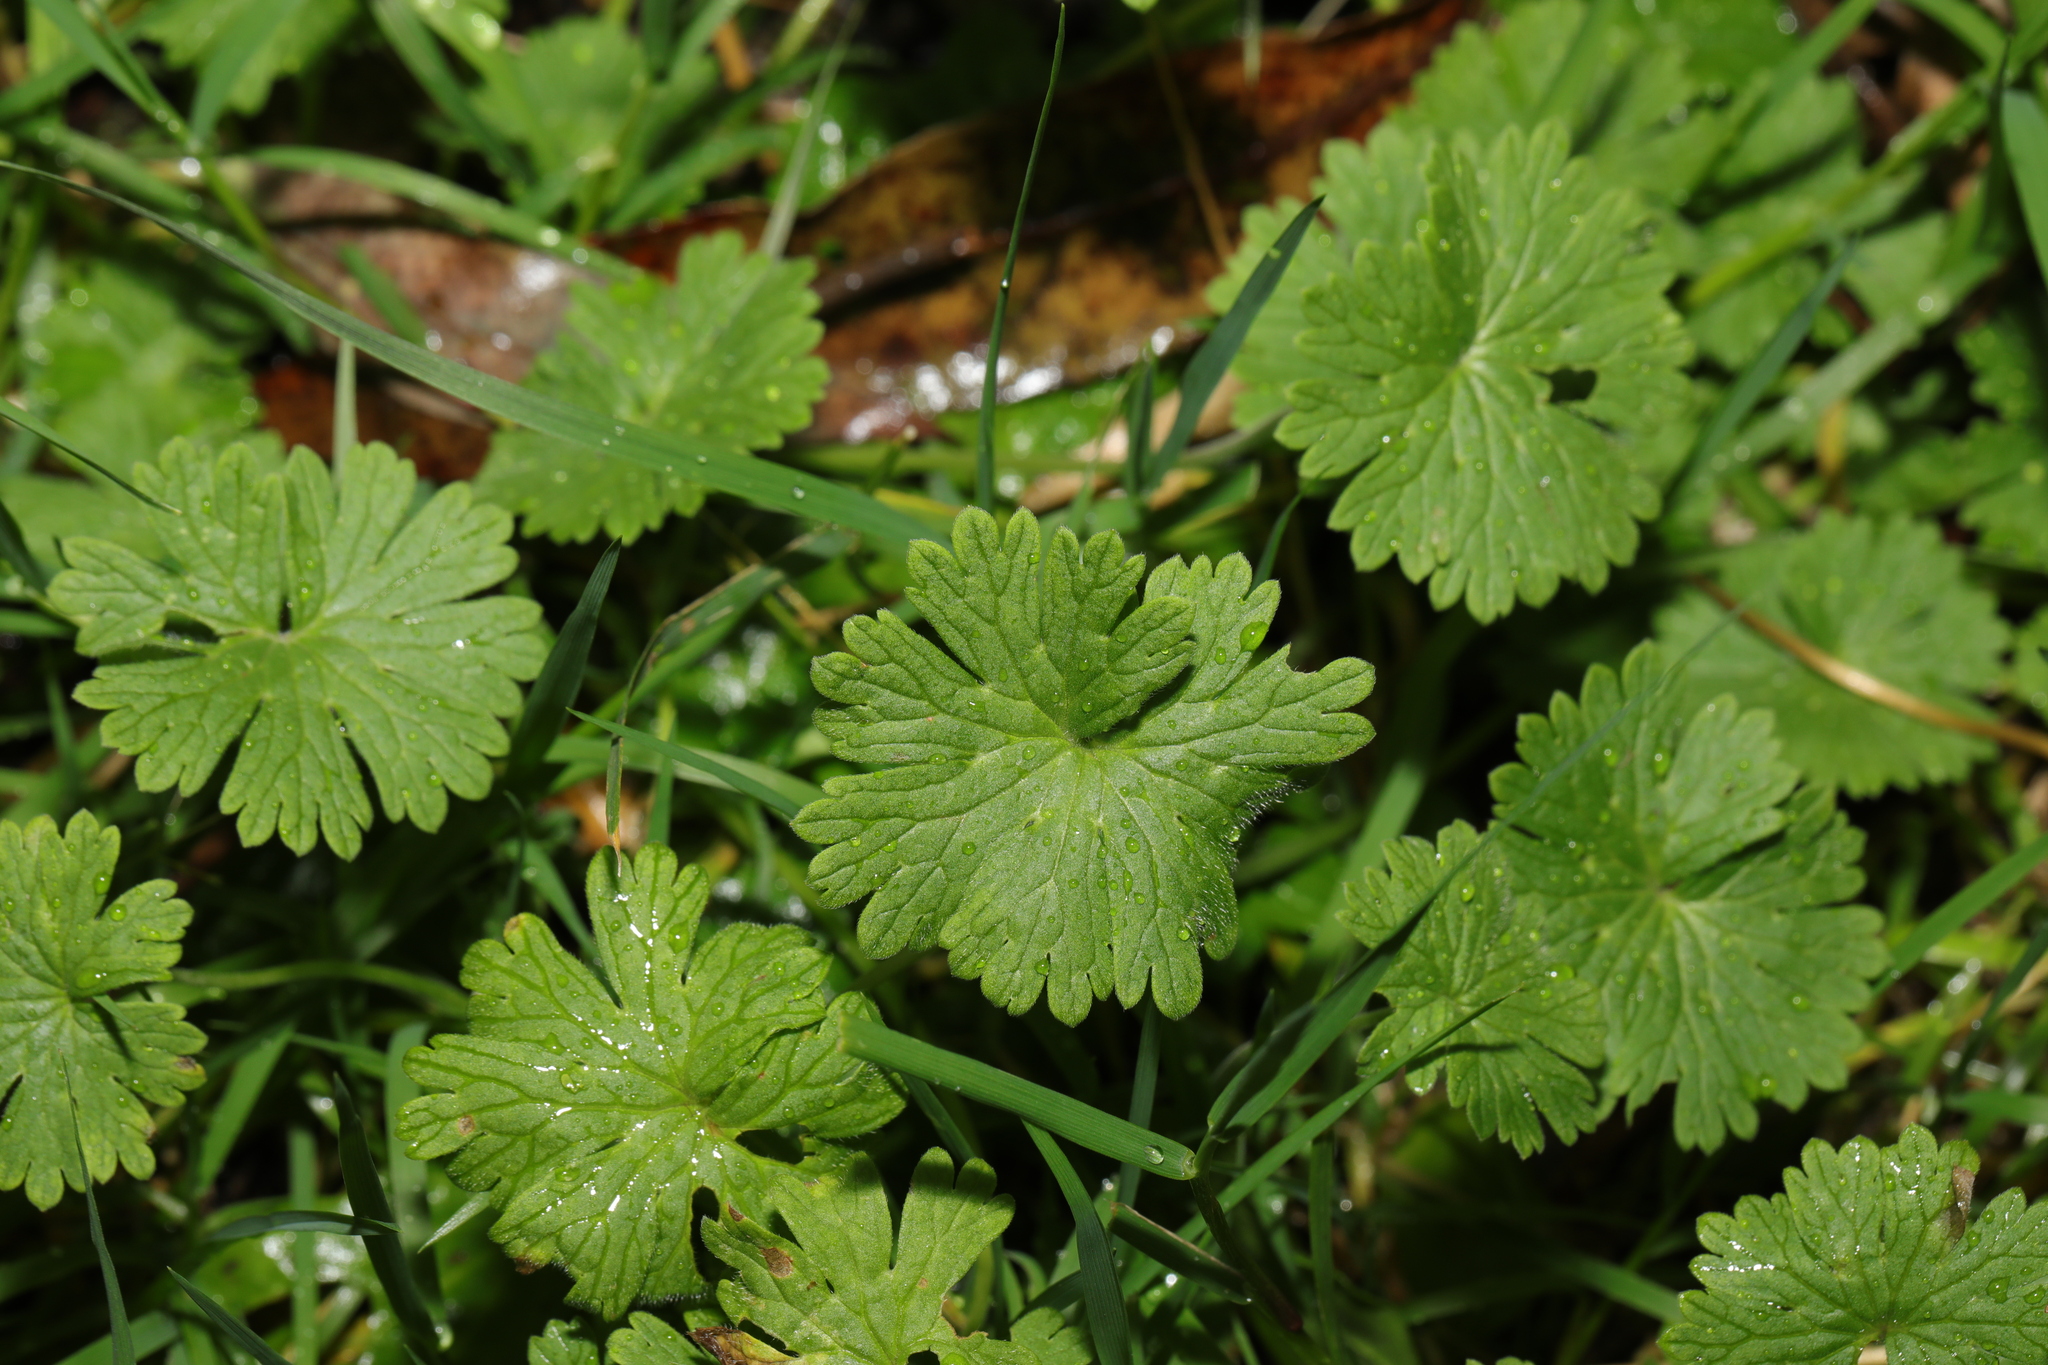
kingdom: Plantae
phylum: Tracheophyta
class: Magnoliopsida
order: Geraniales
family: Geraniaceae
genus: Geranium
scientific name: Geranium molle
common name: Dove's-foot crane's-bill
